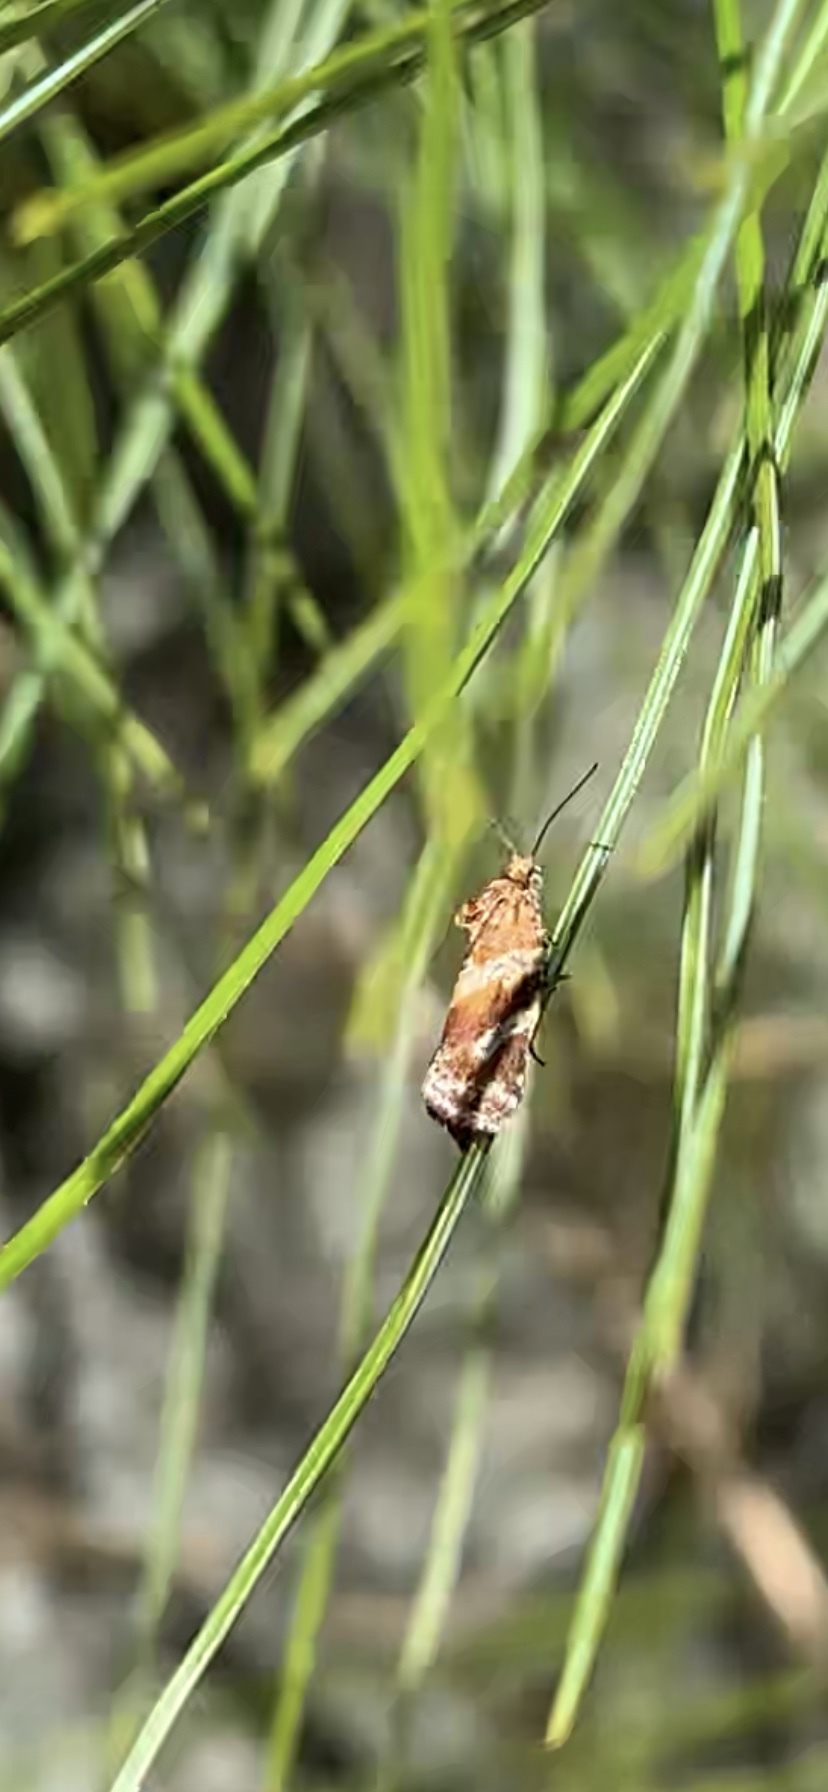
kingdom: Animalia
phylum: Arthropoda
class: Insecta
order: Lepidoptera
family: Tortricidae
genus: Argyrotaenia
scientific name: Argyrotaenia pinatubana
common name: Pine tube moth
